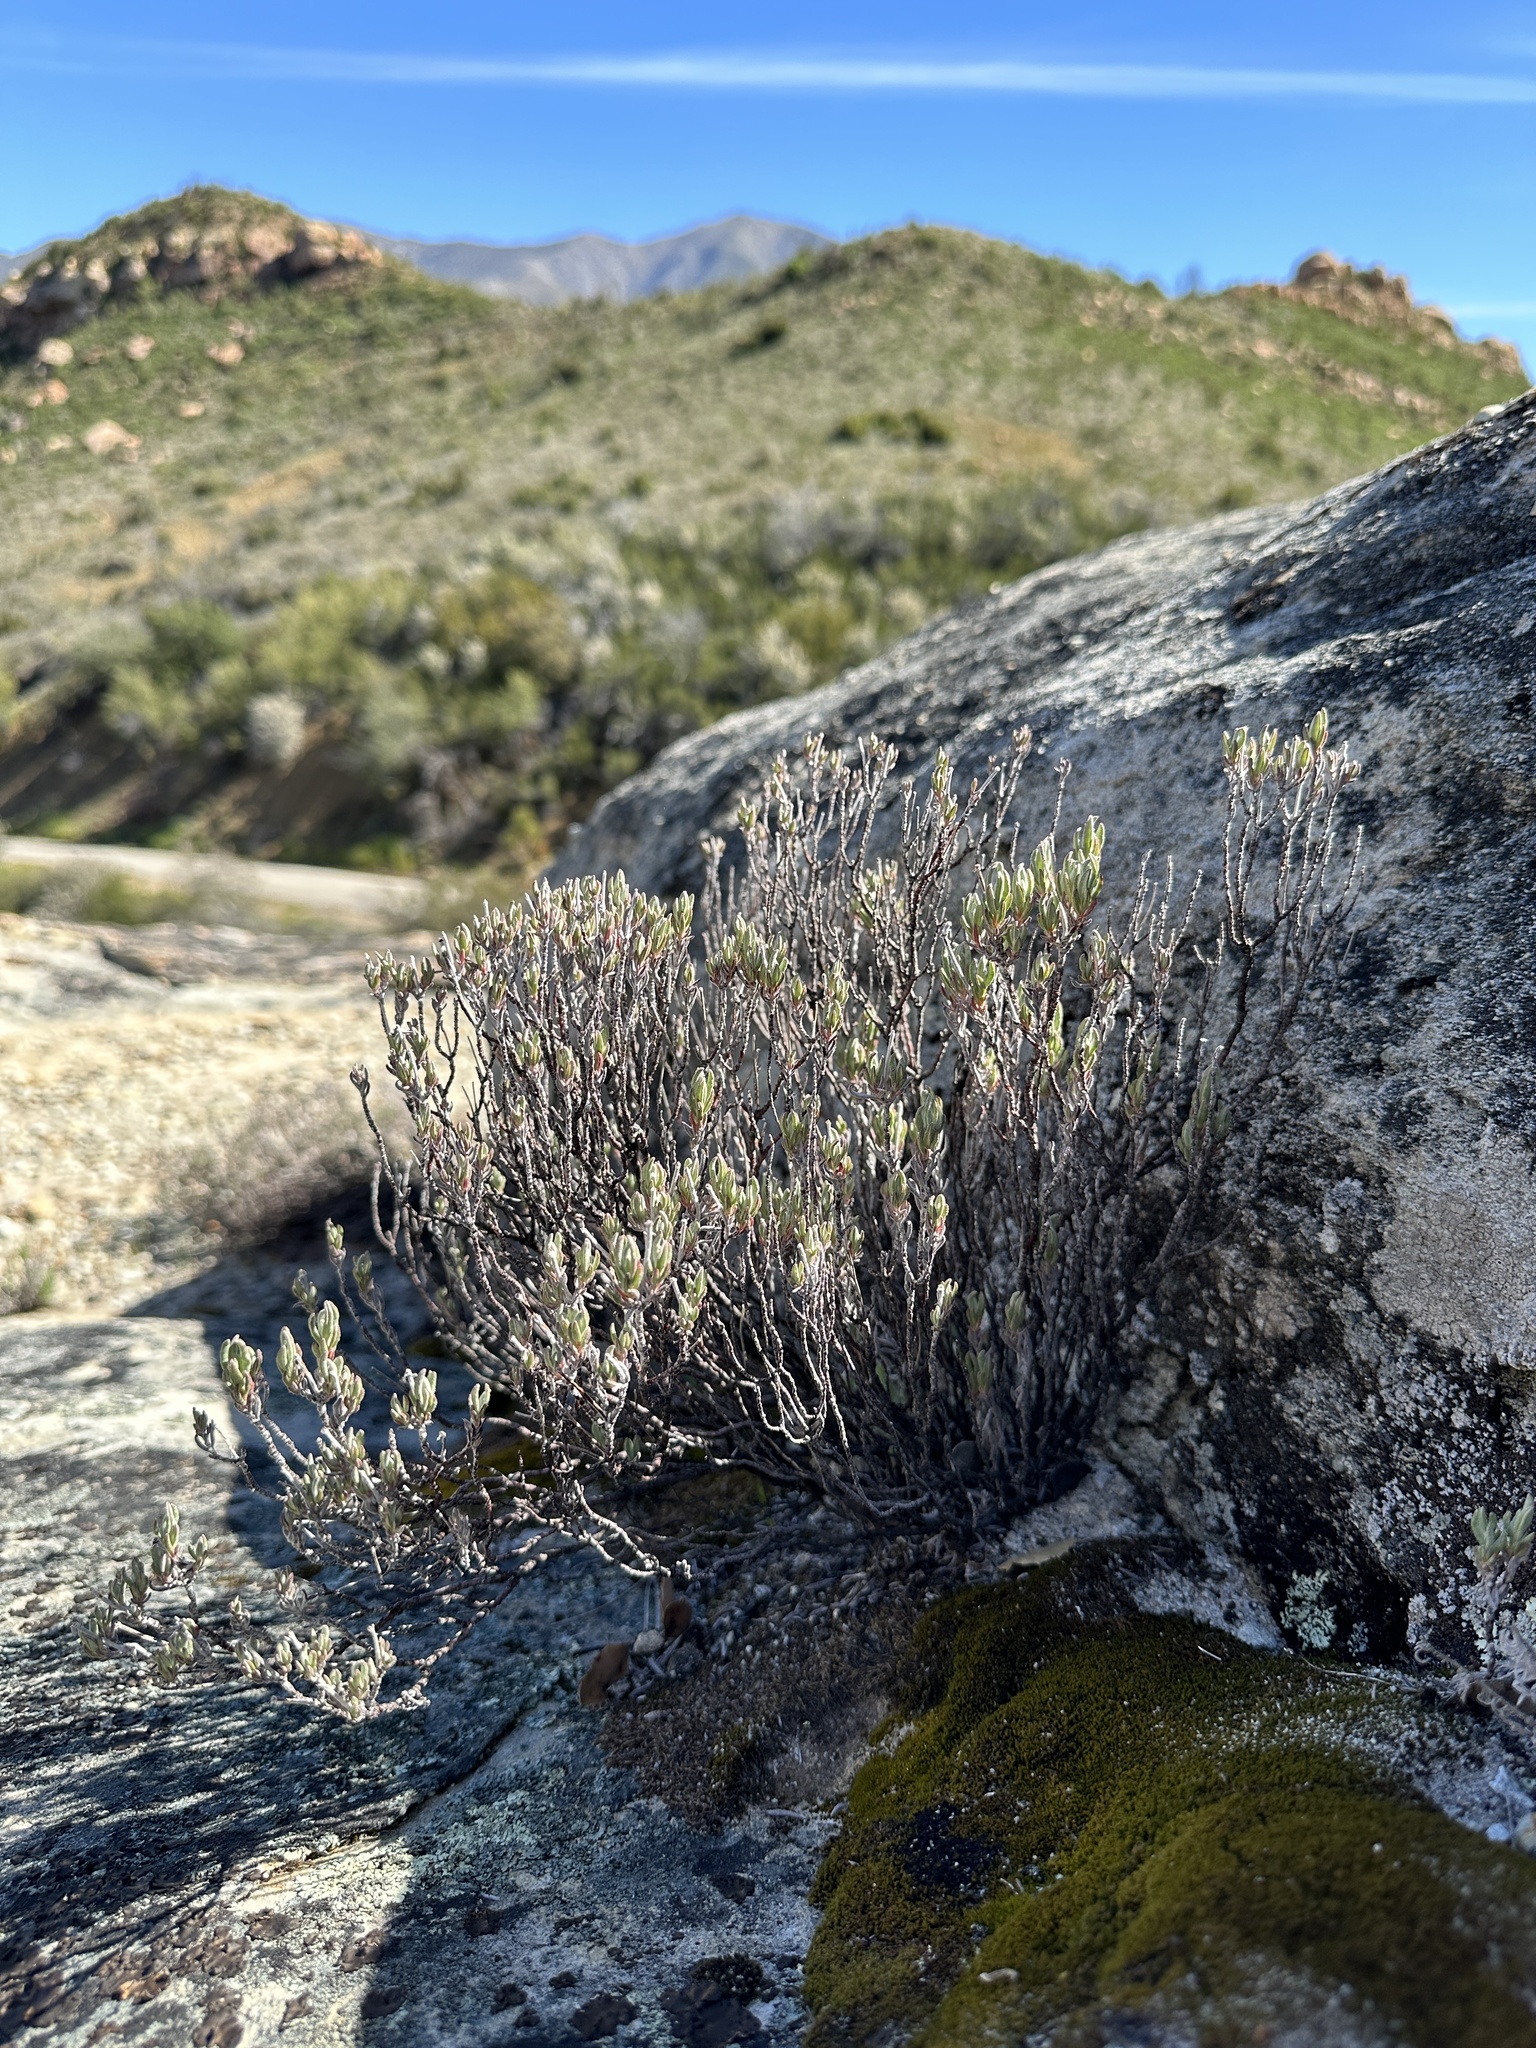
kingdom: Plantae
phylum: Tracheophyta
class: Magnoliopsida
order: Caryophyllales
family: Polygonaceae
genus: Eriogonum
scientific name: Eriogonum butterworthianum
